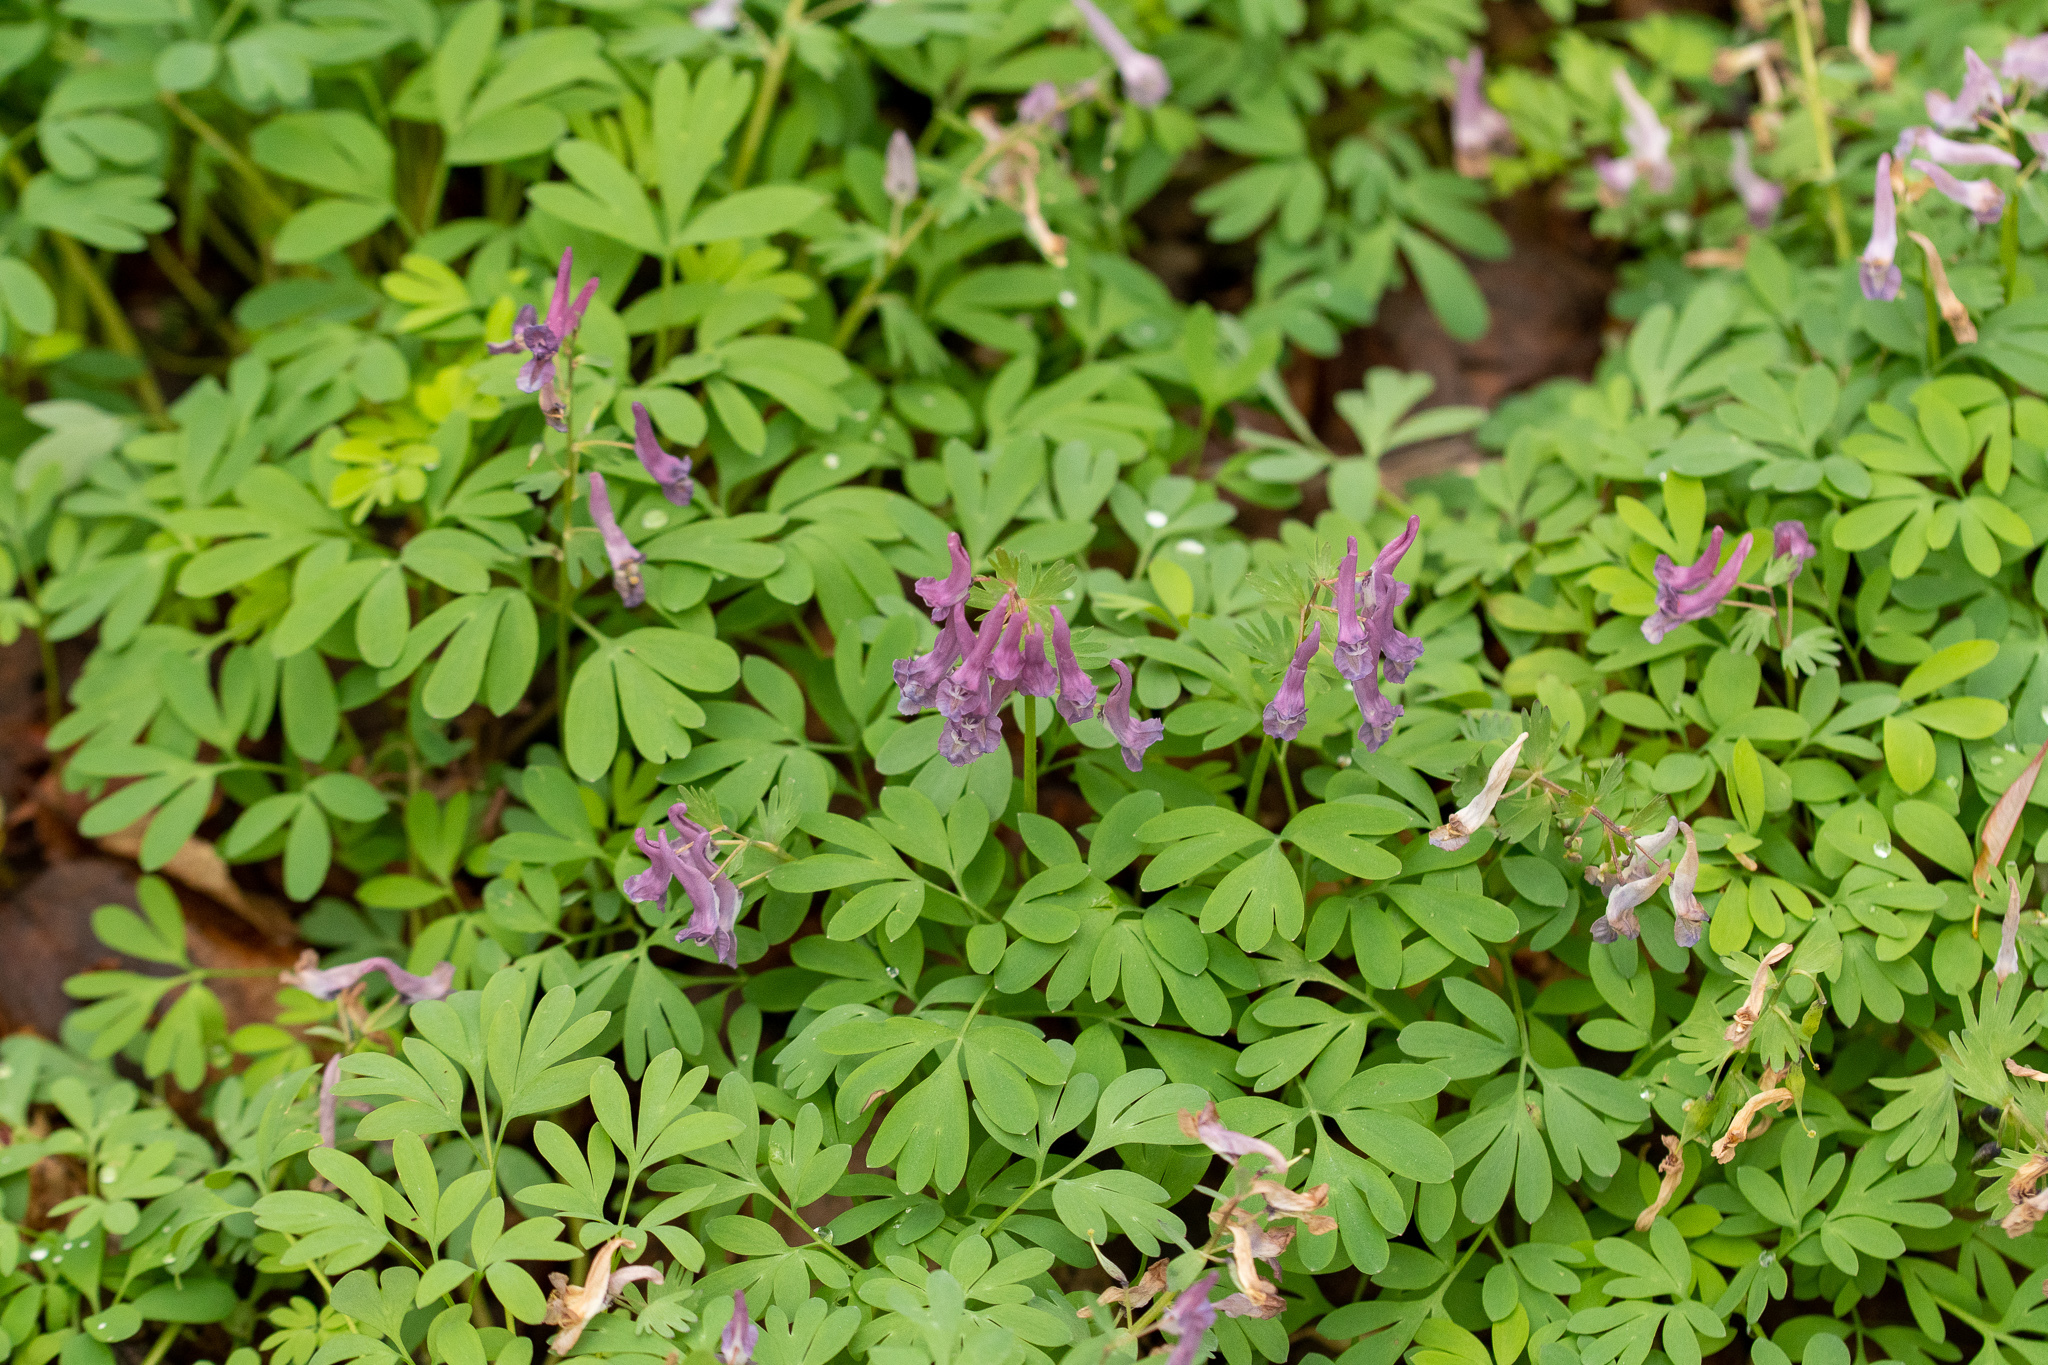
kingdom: Plantae
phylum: Tracheophyta
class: Magnoliopsida
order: Ranunculales
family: Papaveraceae
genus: Corydalis
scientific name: Corydalis solida
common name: Bird-in-a-bush
